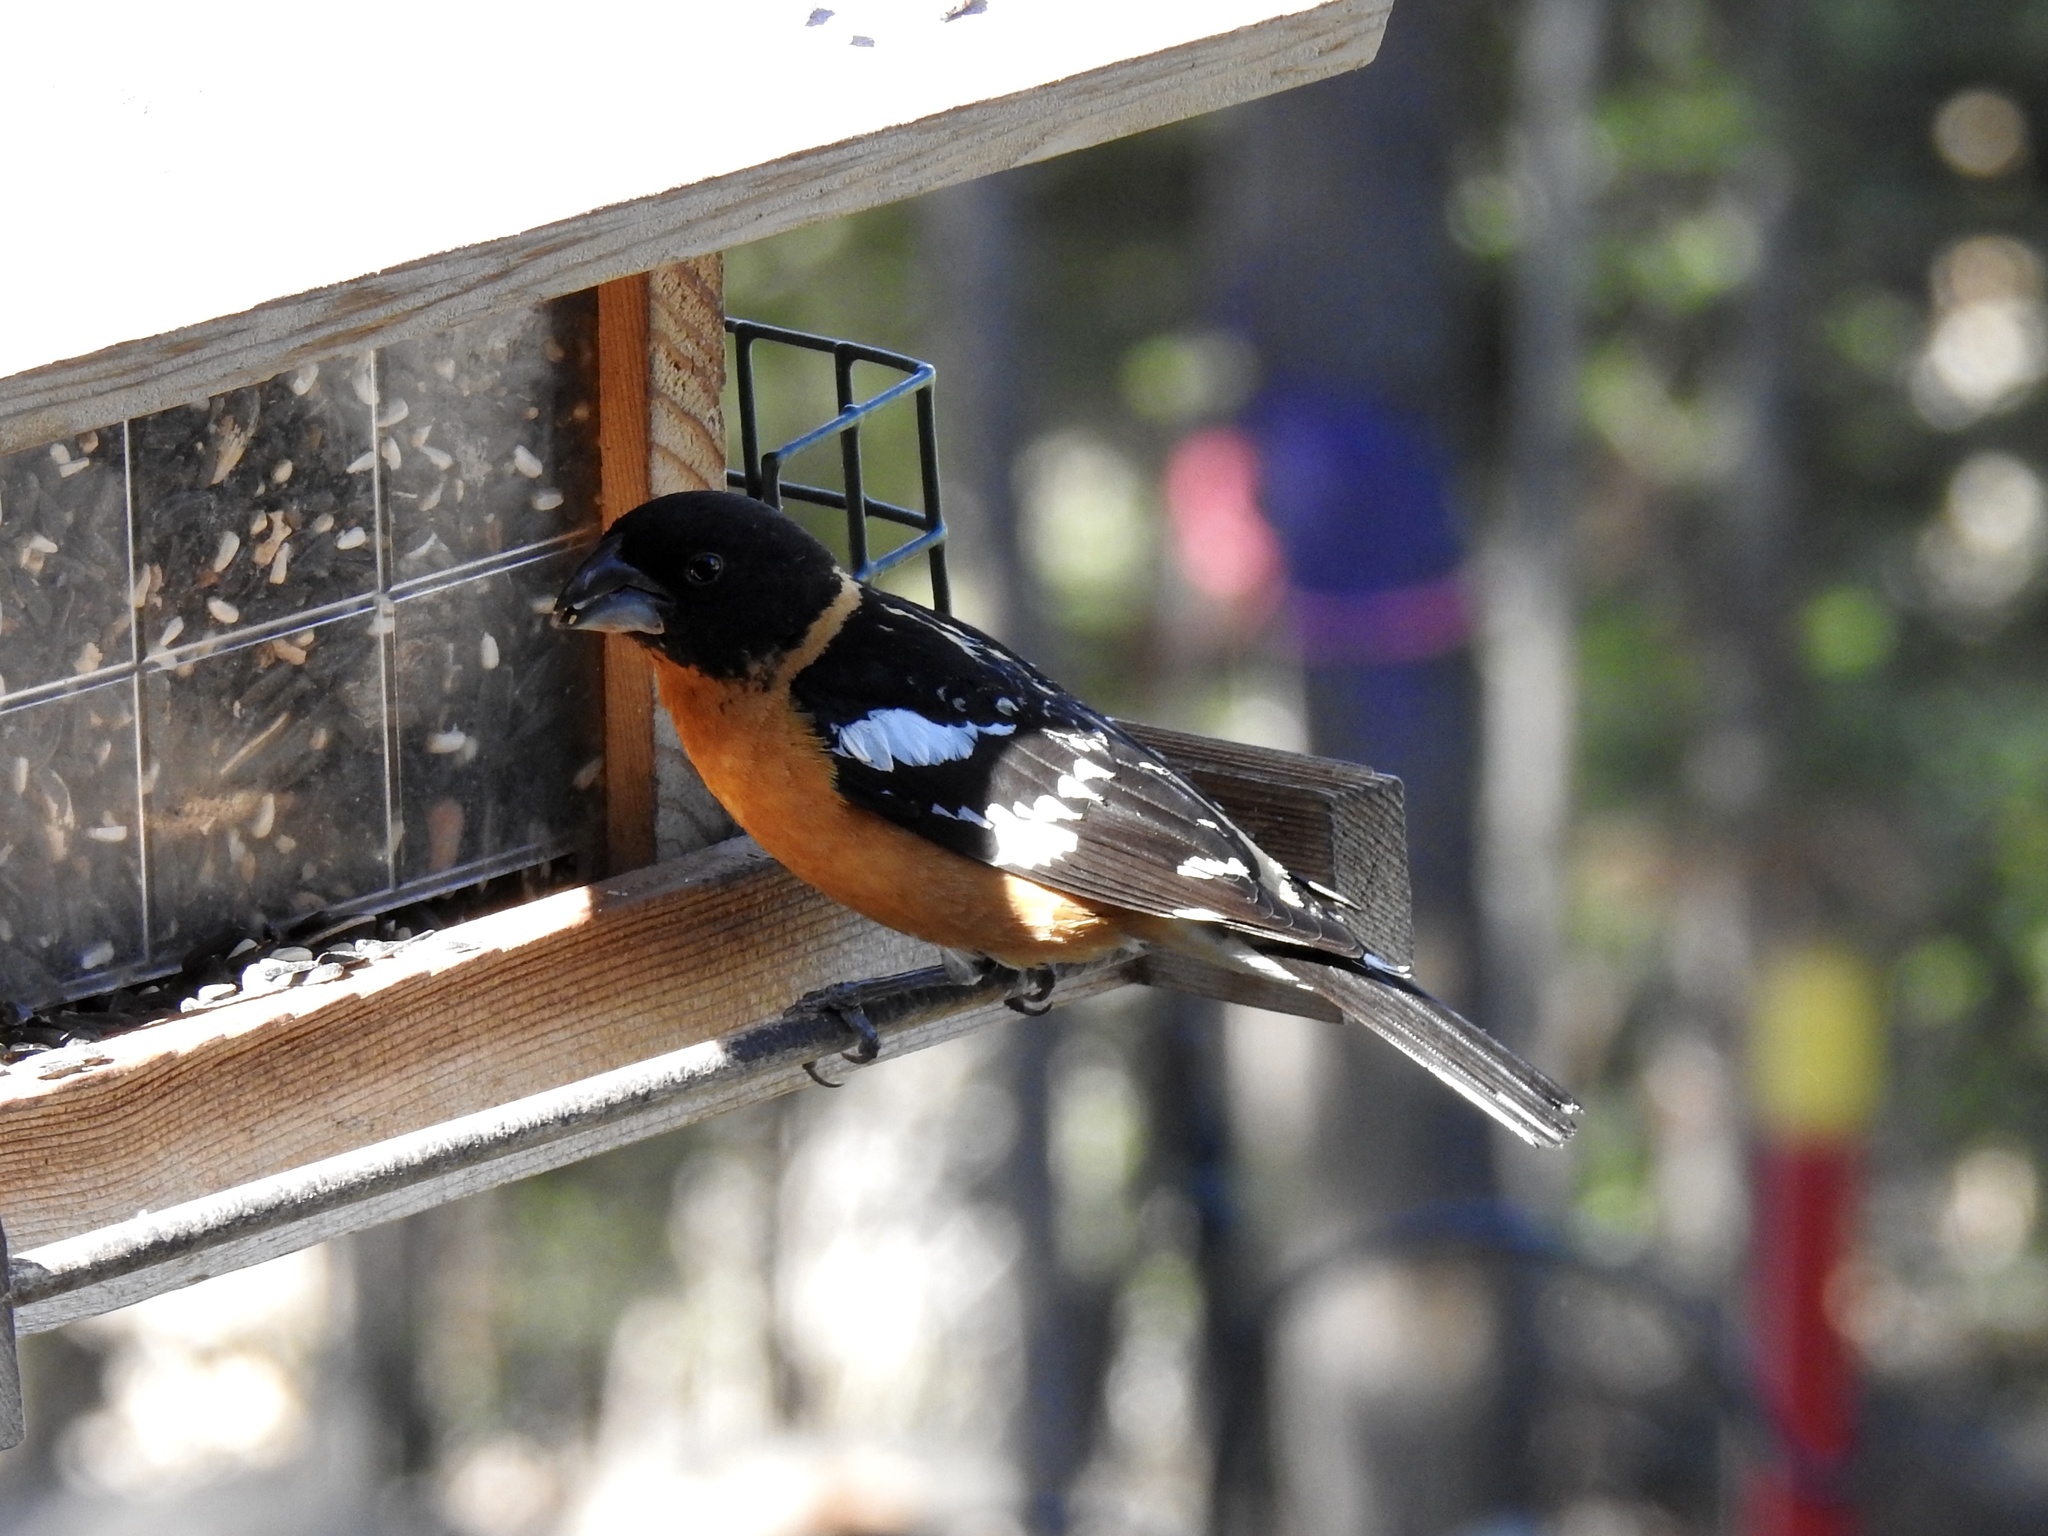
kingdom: Animalia
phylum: Chordata
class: Aves
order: Passeriformes
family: Cardinalidae
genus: Pheucticus
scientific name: Pheucticus melanocephalus
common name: Black-headed grosbeak
